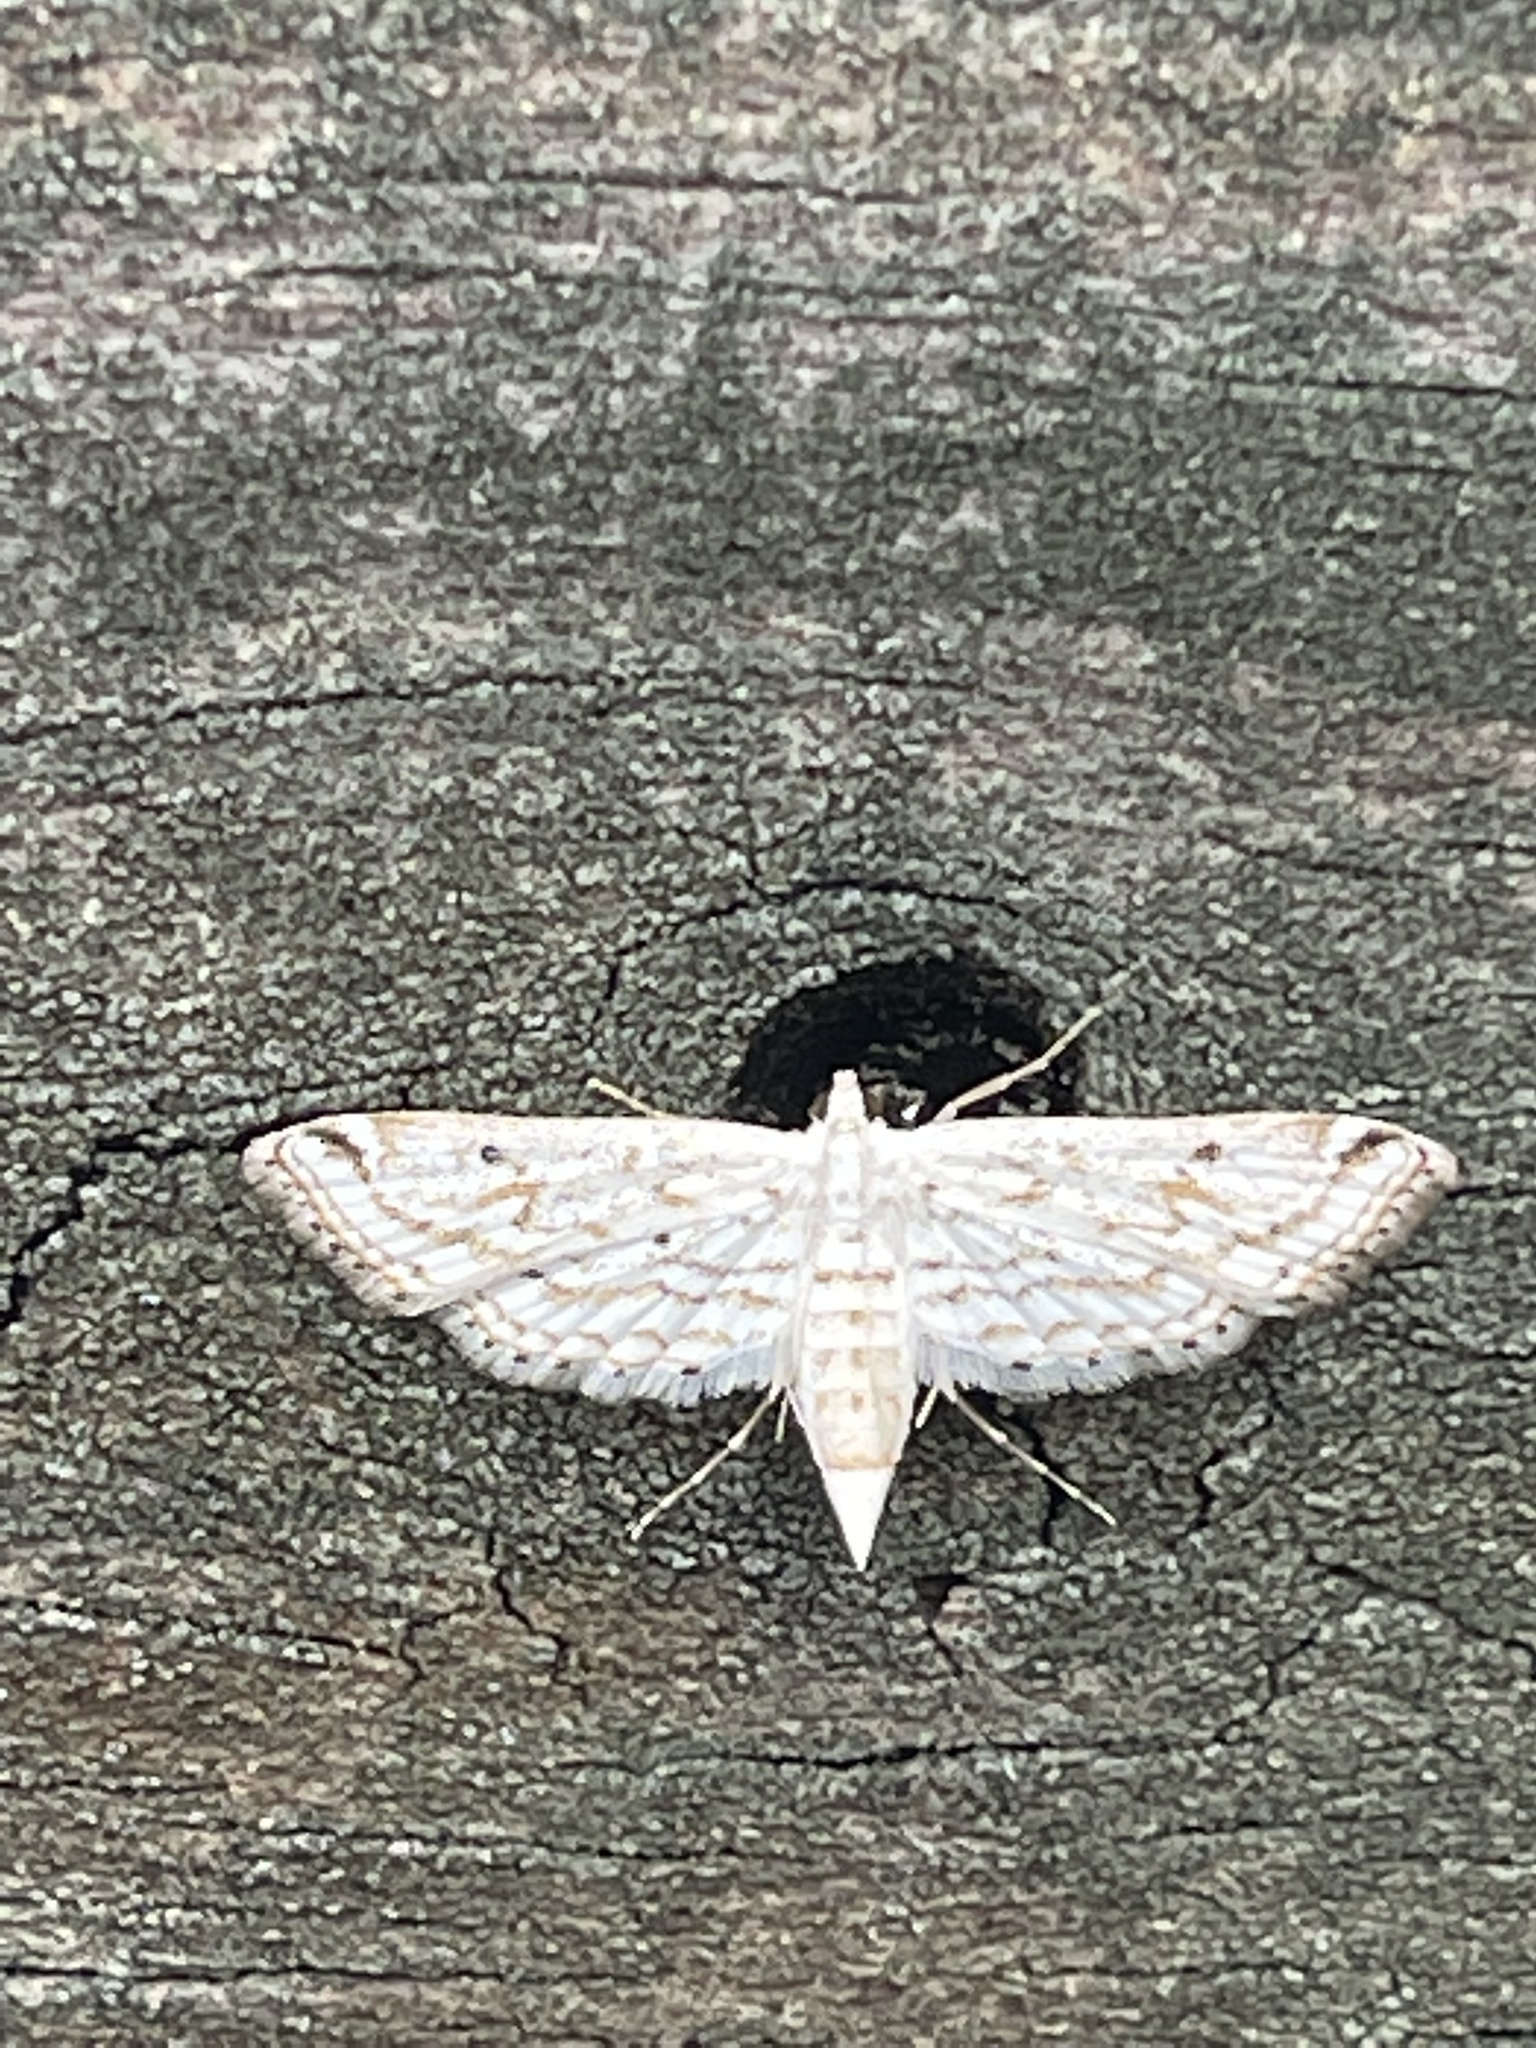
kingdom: Animalia
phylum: Arthropoda
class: Insecta
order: Lepidoptera
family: Crambidae
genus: Parapoynx
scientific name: Parapoynx allionealis
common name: Bladderwort casemaker
